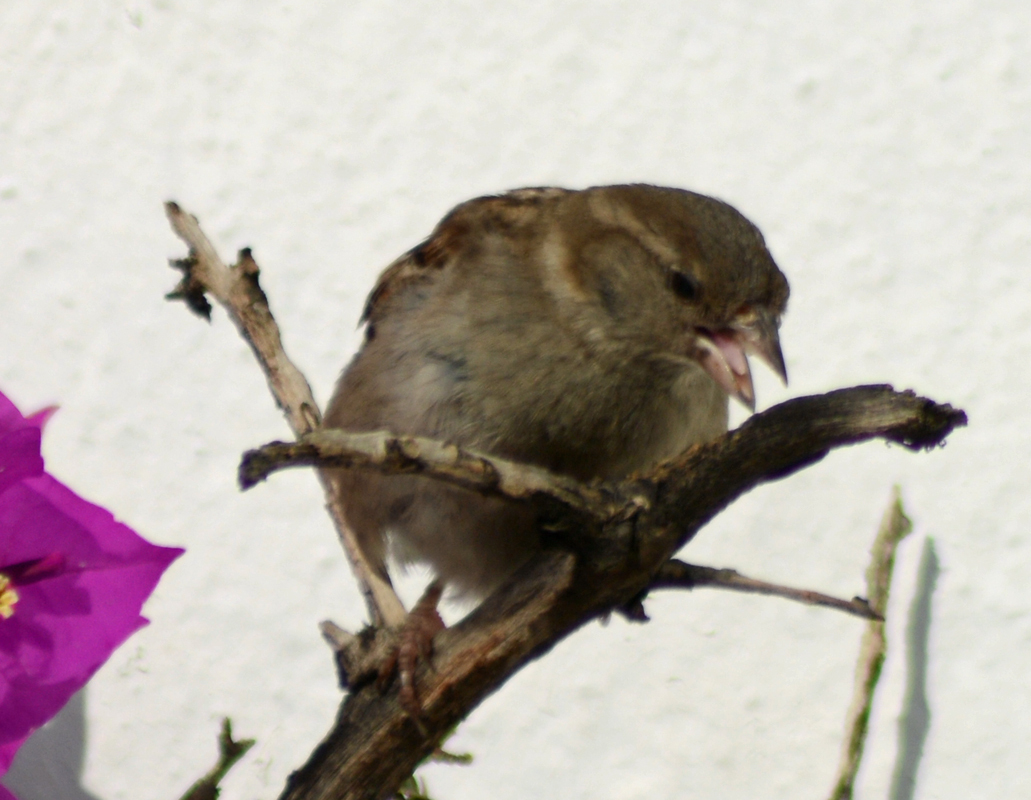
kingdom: Animalia
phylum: Chordata
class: Aves
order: Passeriformes
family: Passeridae
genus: Passer
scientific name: Passer domesticus
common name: House sparrow
